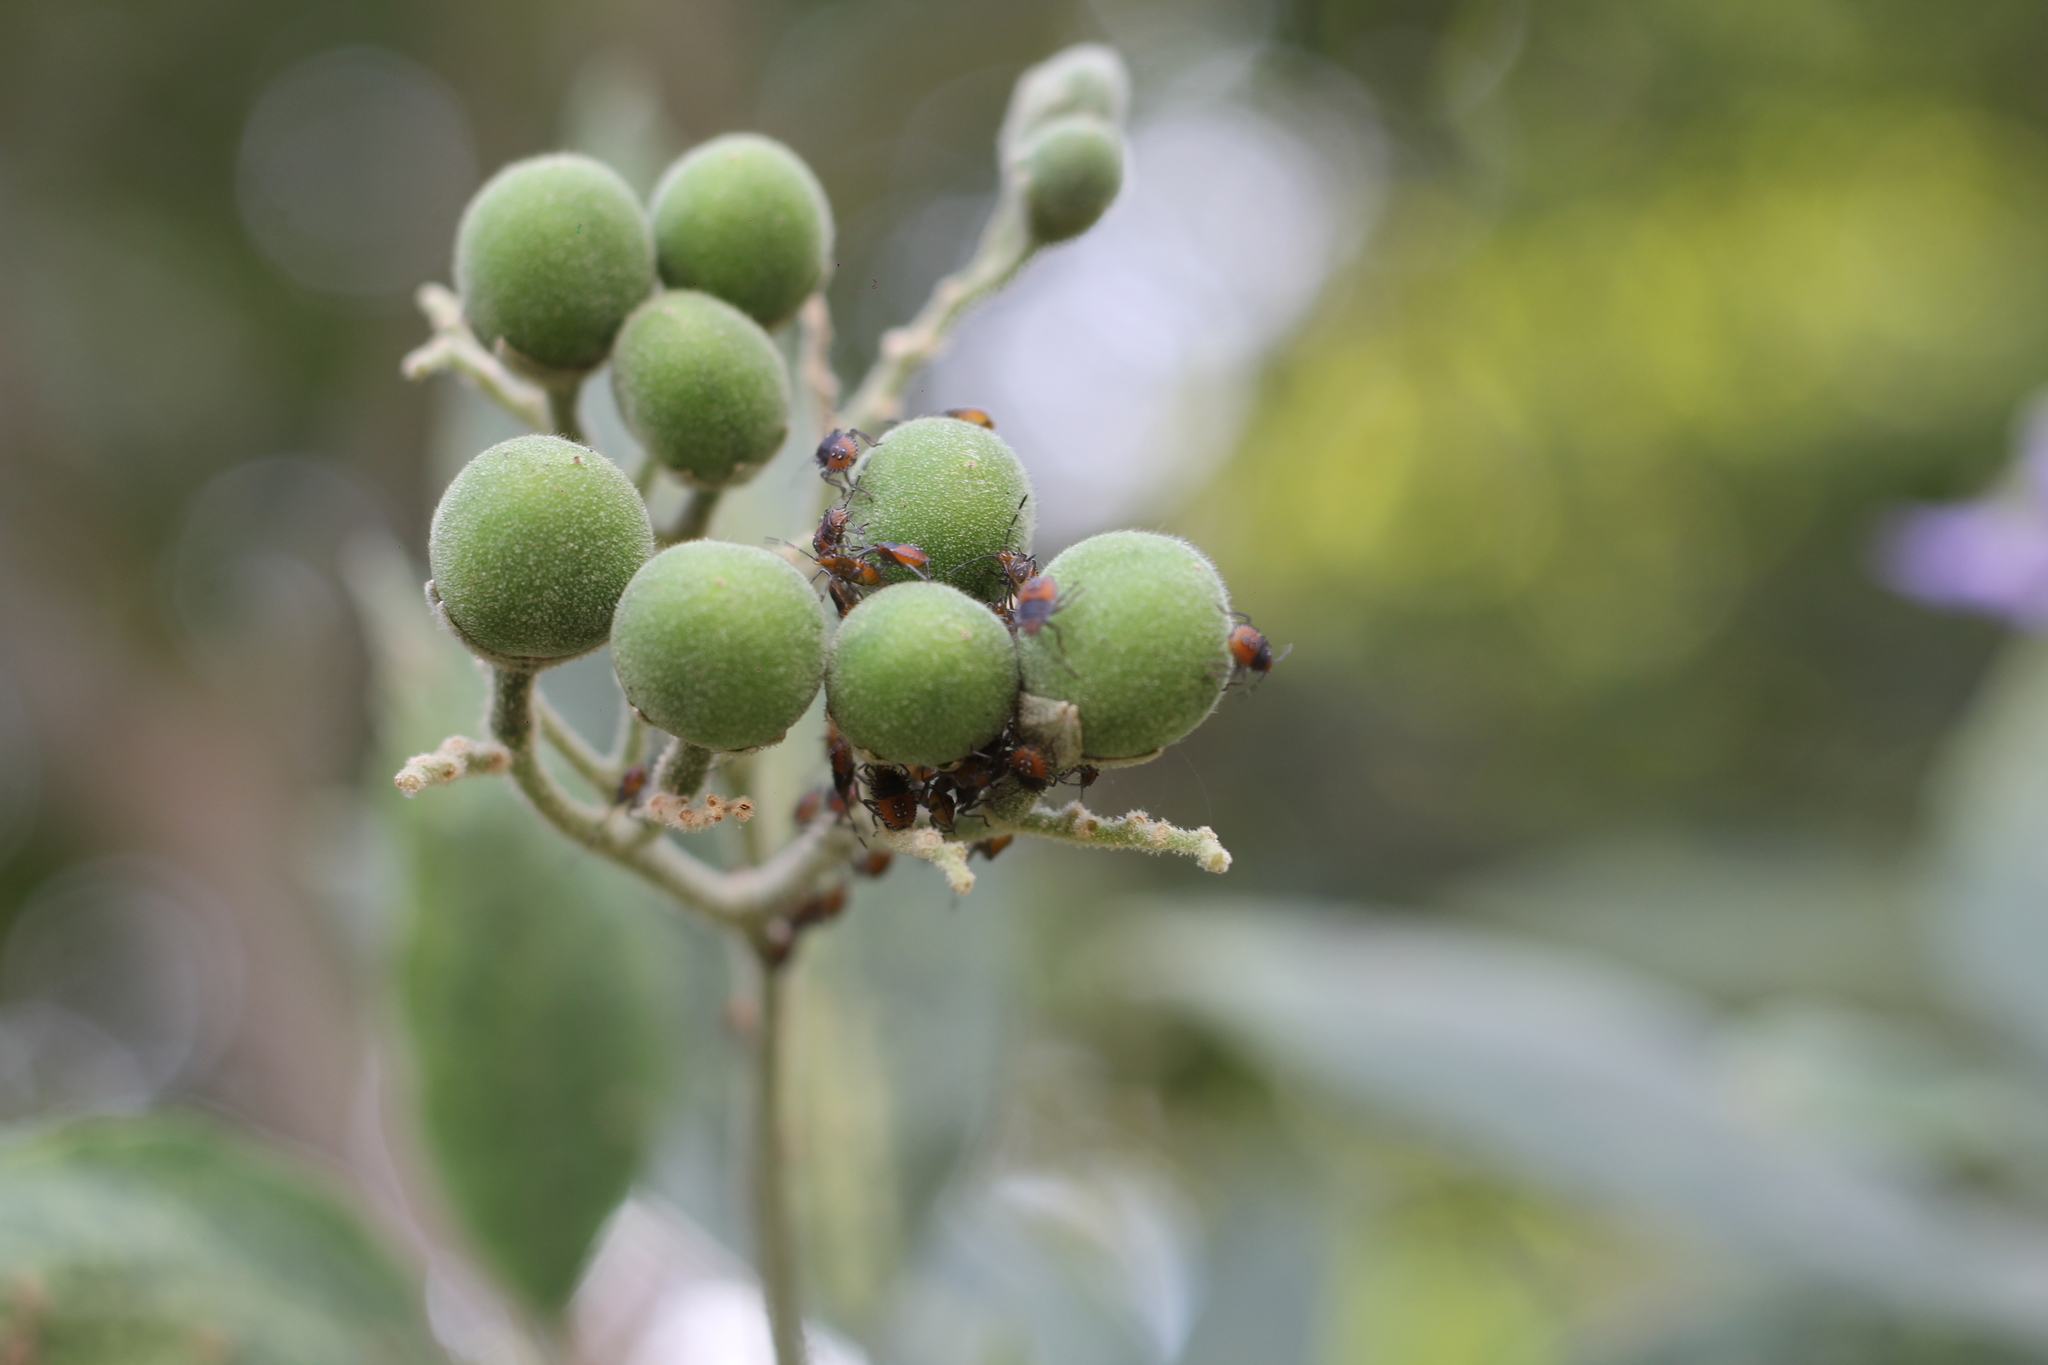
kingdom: Animalia
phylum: Arthropoda
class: Insecta
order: Hemiptera
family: Pentatomidae
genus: Arvelius
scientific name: Arvelius albopunctatus
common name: Tomato stink bug
